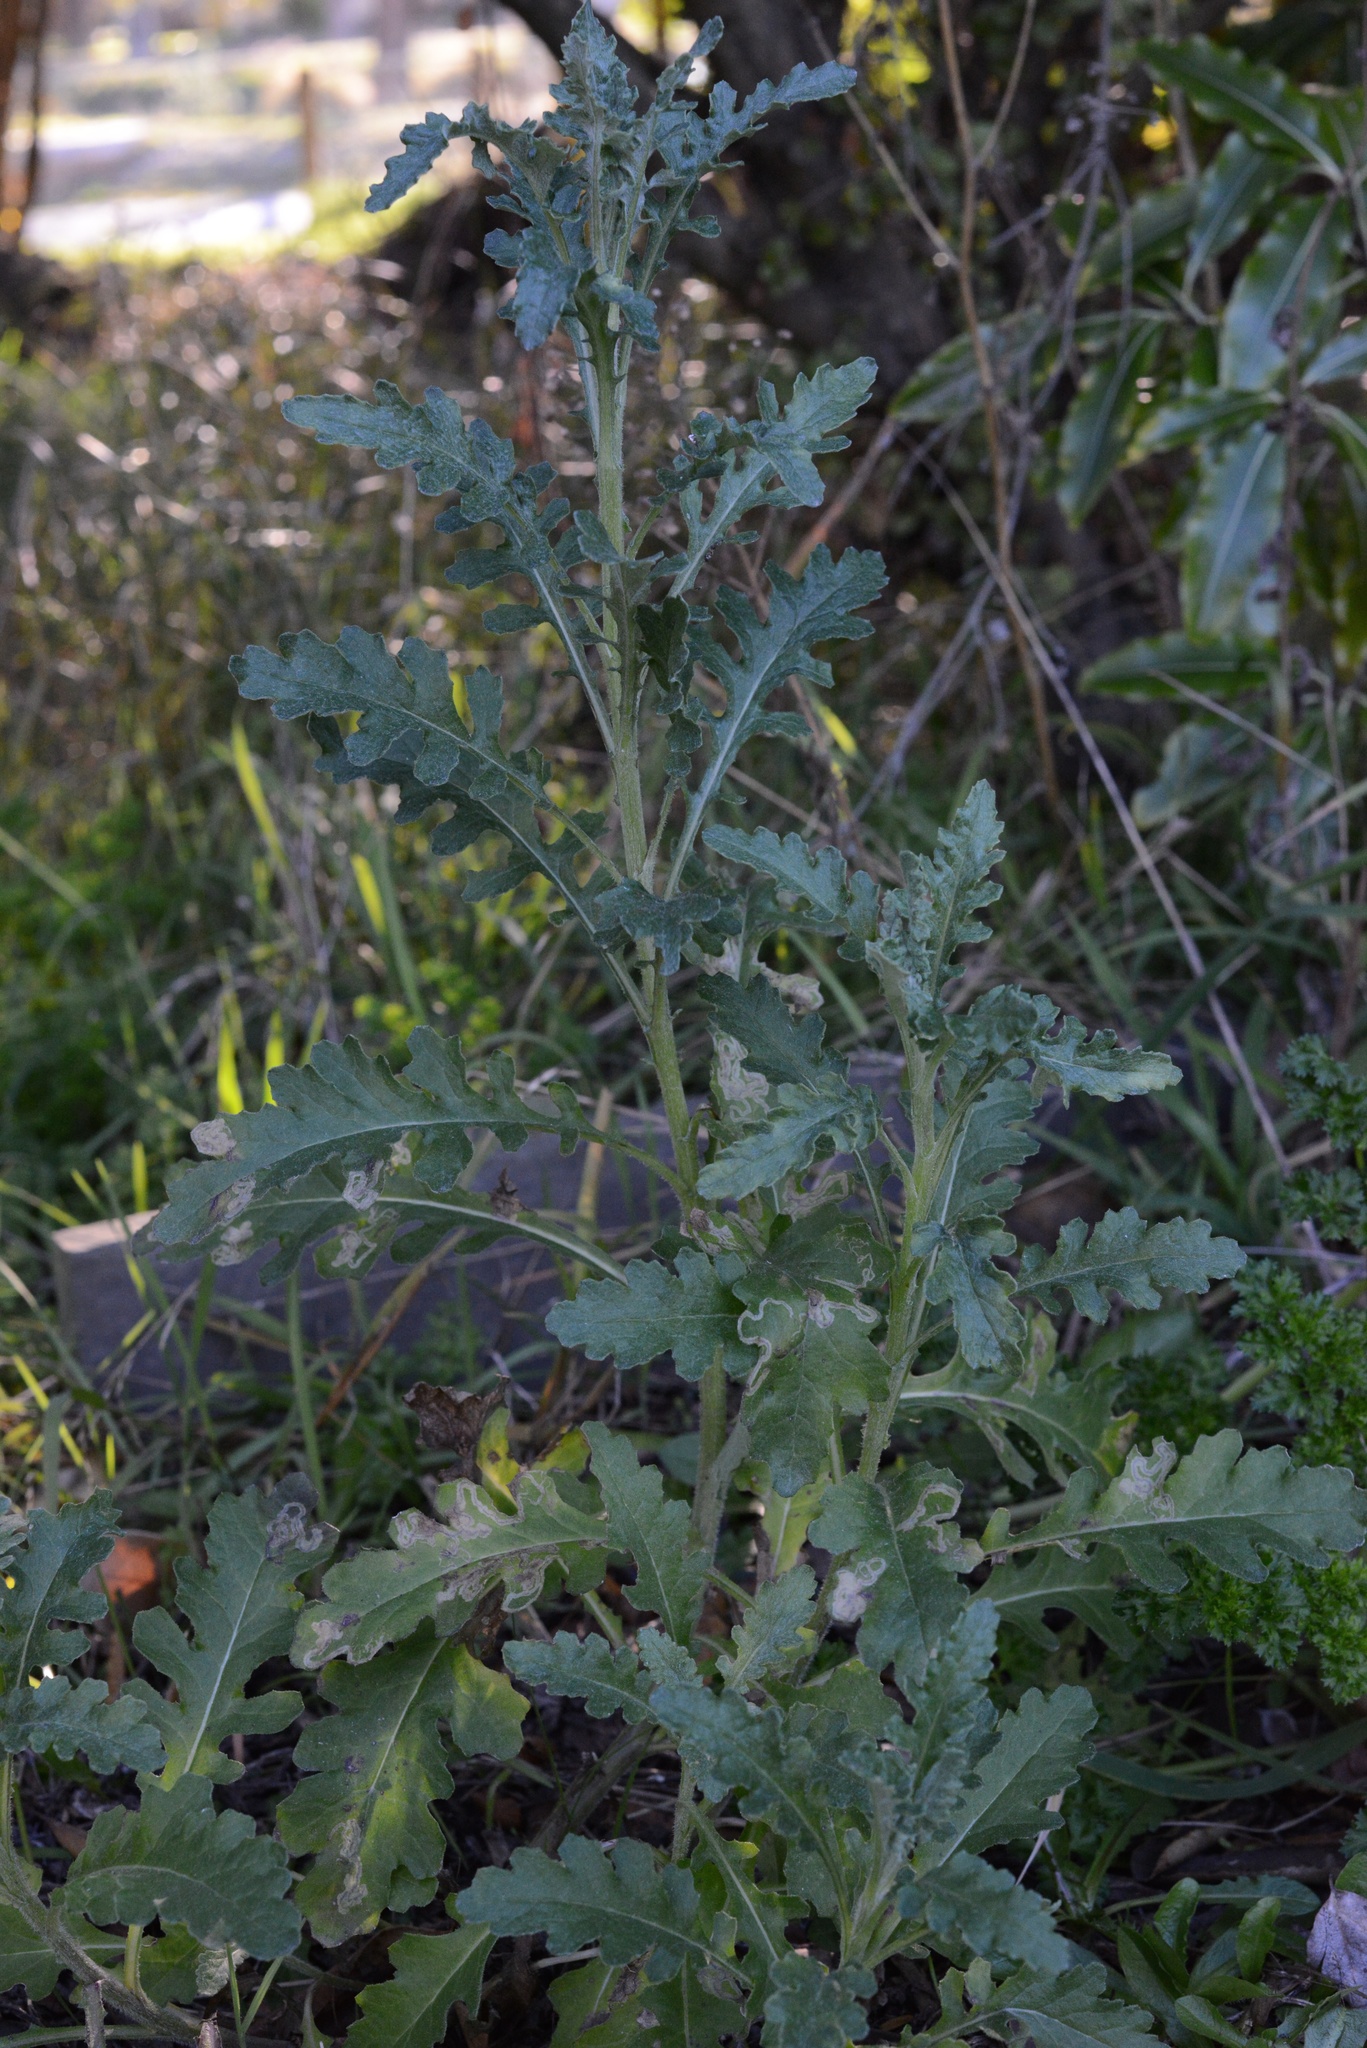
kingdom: Plantae
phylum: Tracheophyta
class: Magnoliopsida
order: Asterales
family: Asteraceae
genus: Senecio
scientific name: Senecio glomeratus
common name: Cutleaf burnweed
